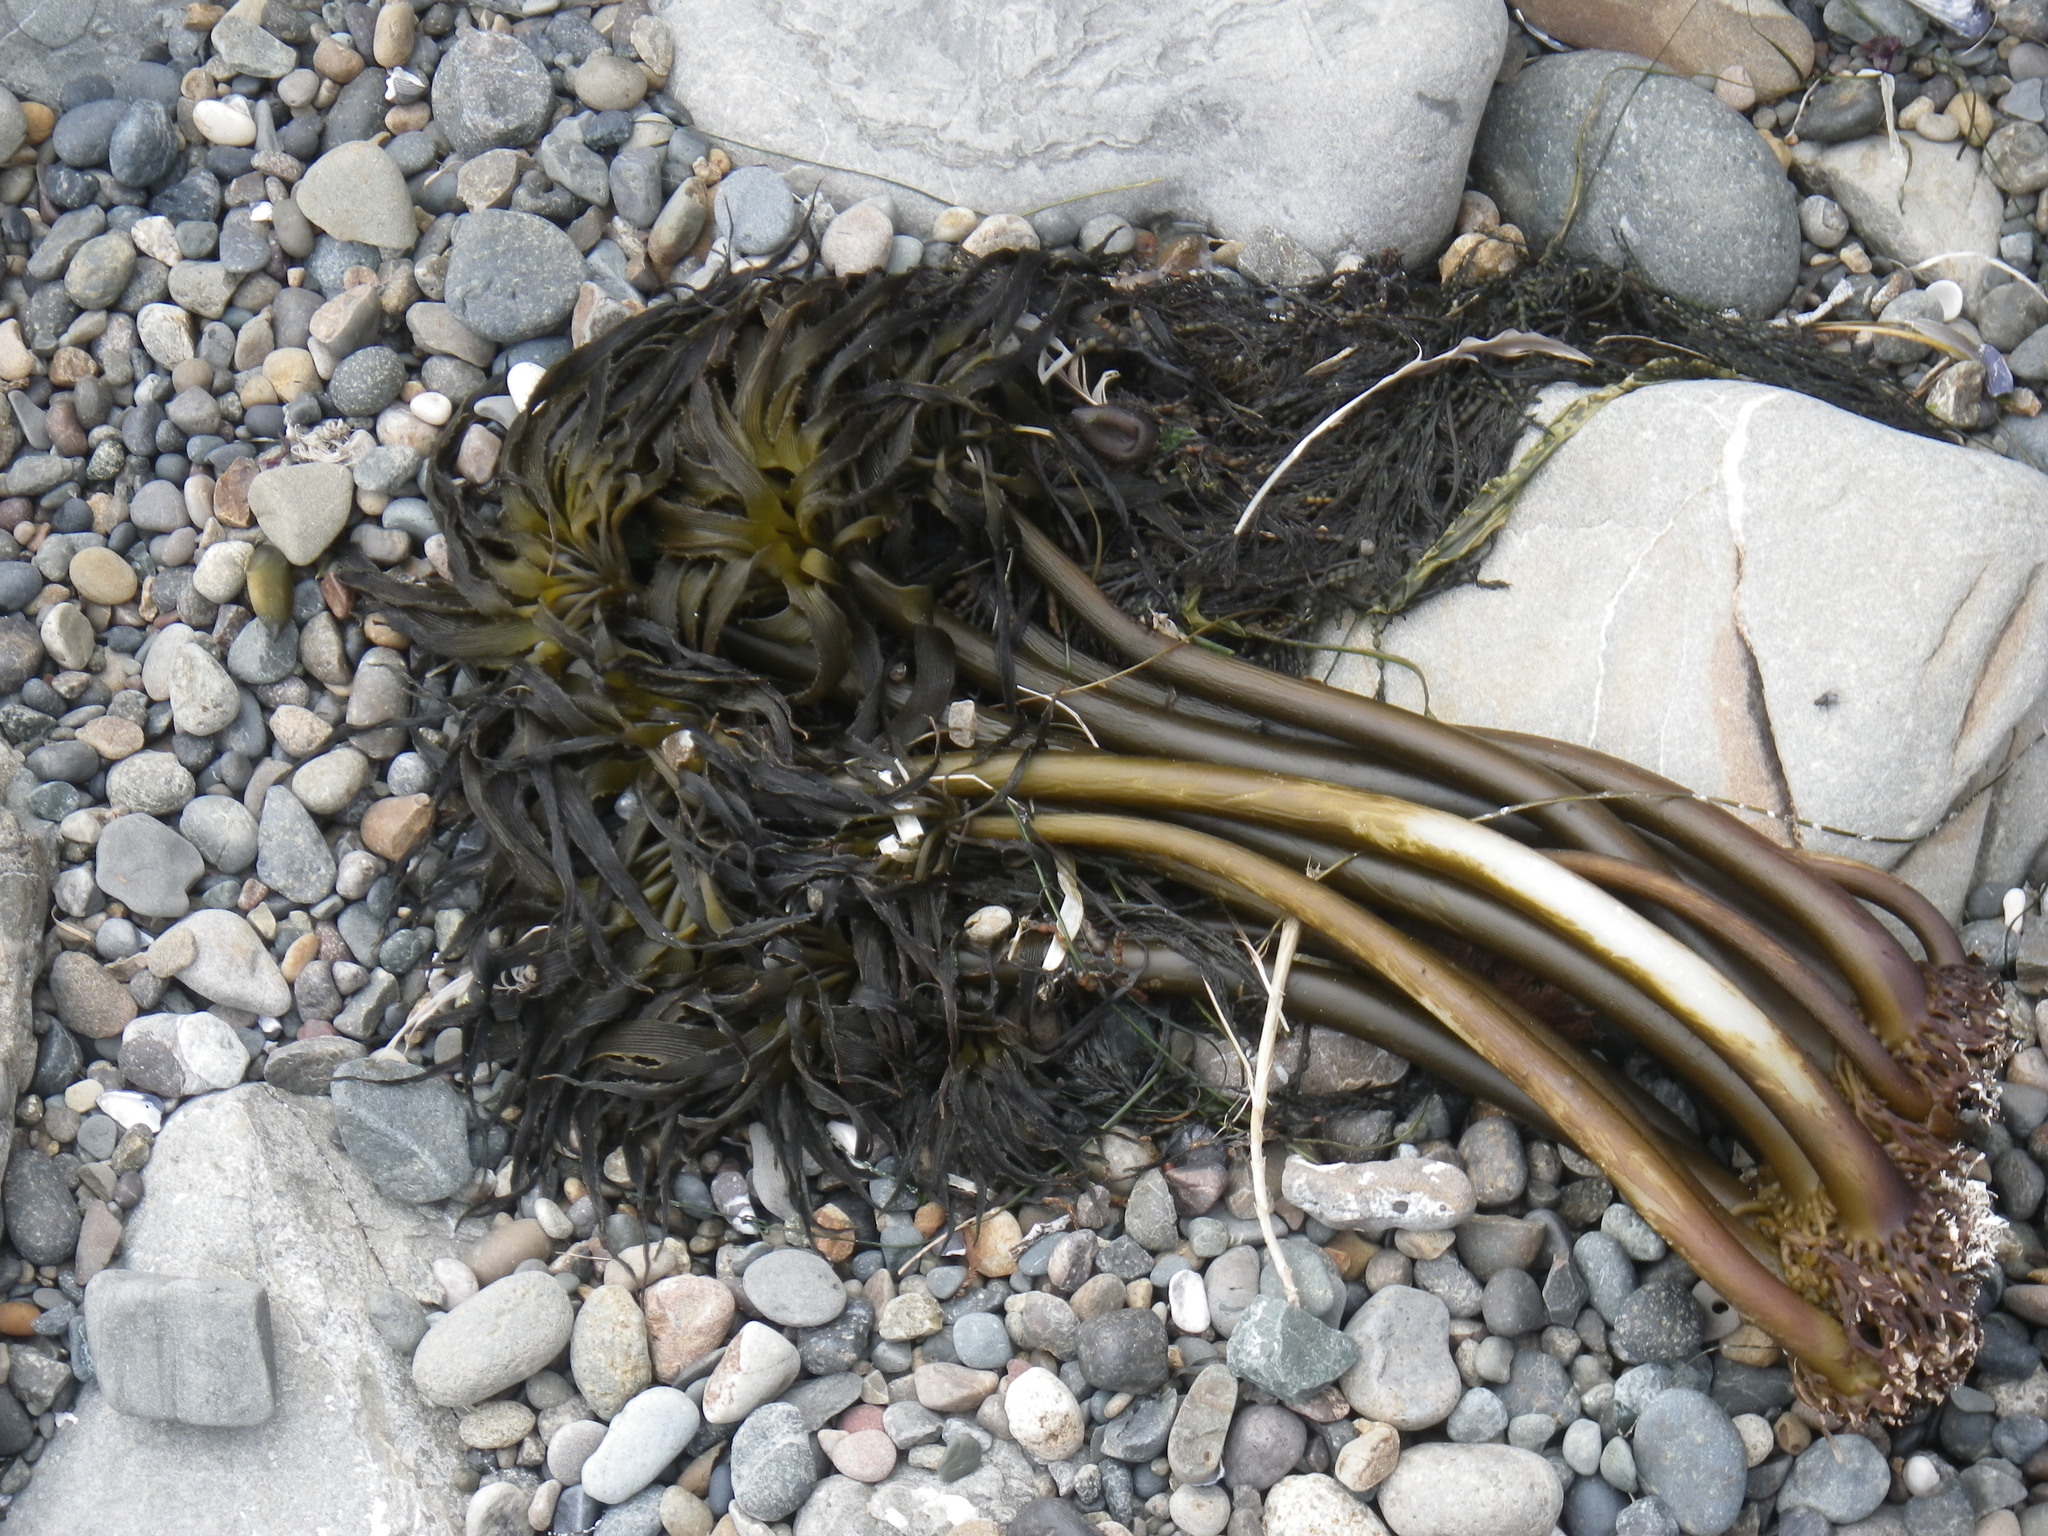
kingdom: Chromista
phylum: Ochrophyta
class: Phaeophyceae
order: Laminariales
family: Laminariaceae
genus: Postelsia
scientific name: Postelsia palmiformis
